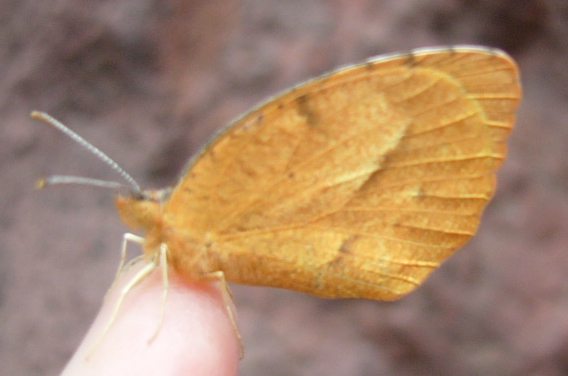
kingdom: Animalia
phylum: Arthropoda
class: Insecta
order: Lepidoptera
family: Pieridae
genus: Abaeis
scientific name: Abaeis nicippe
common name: Sleepy orange
